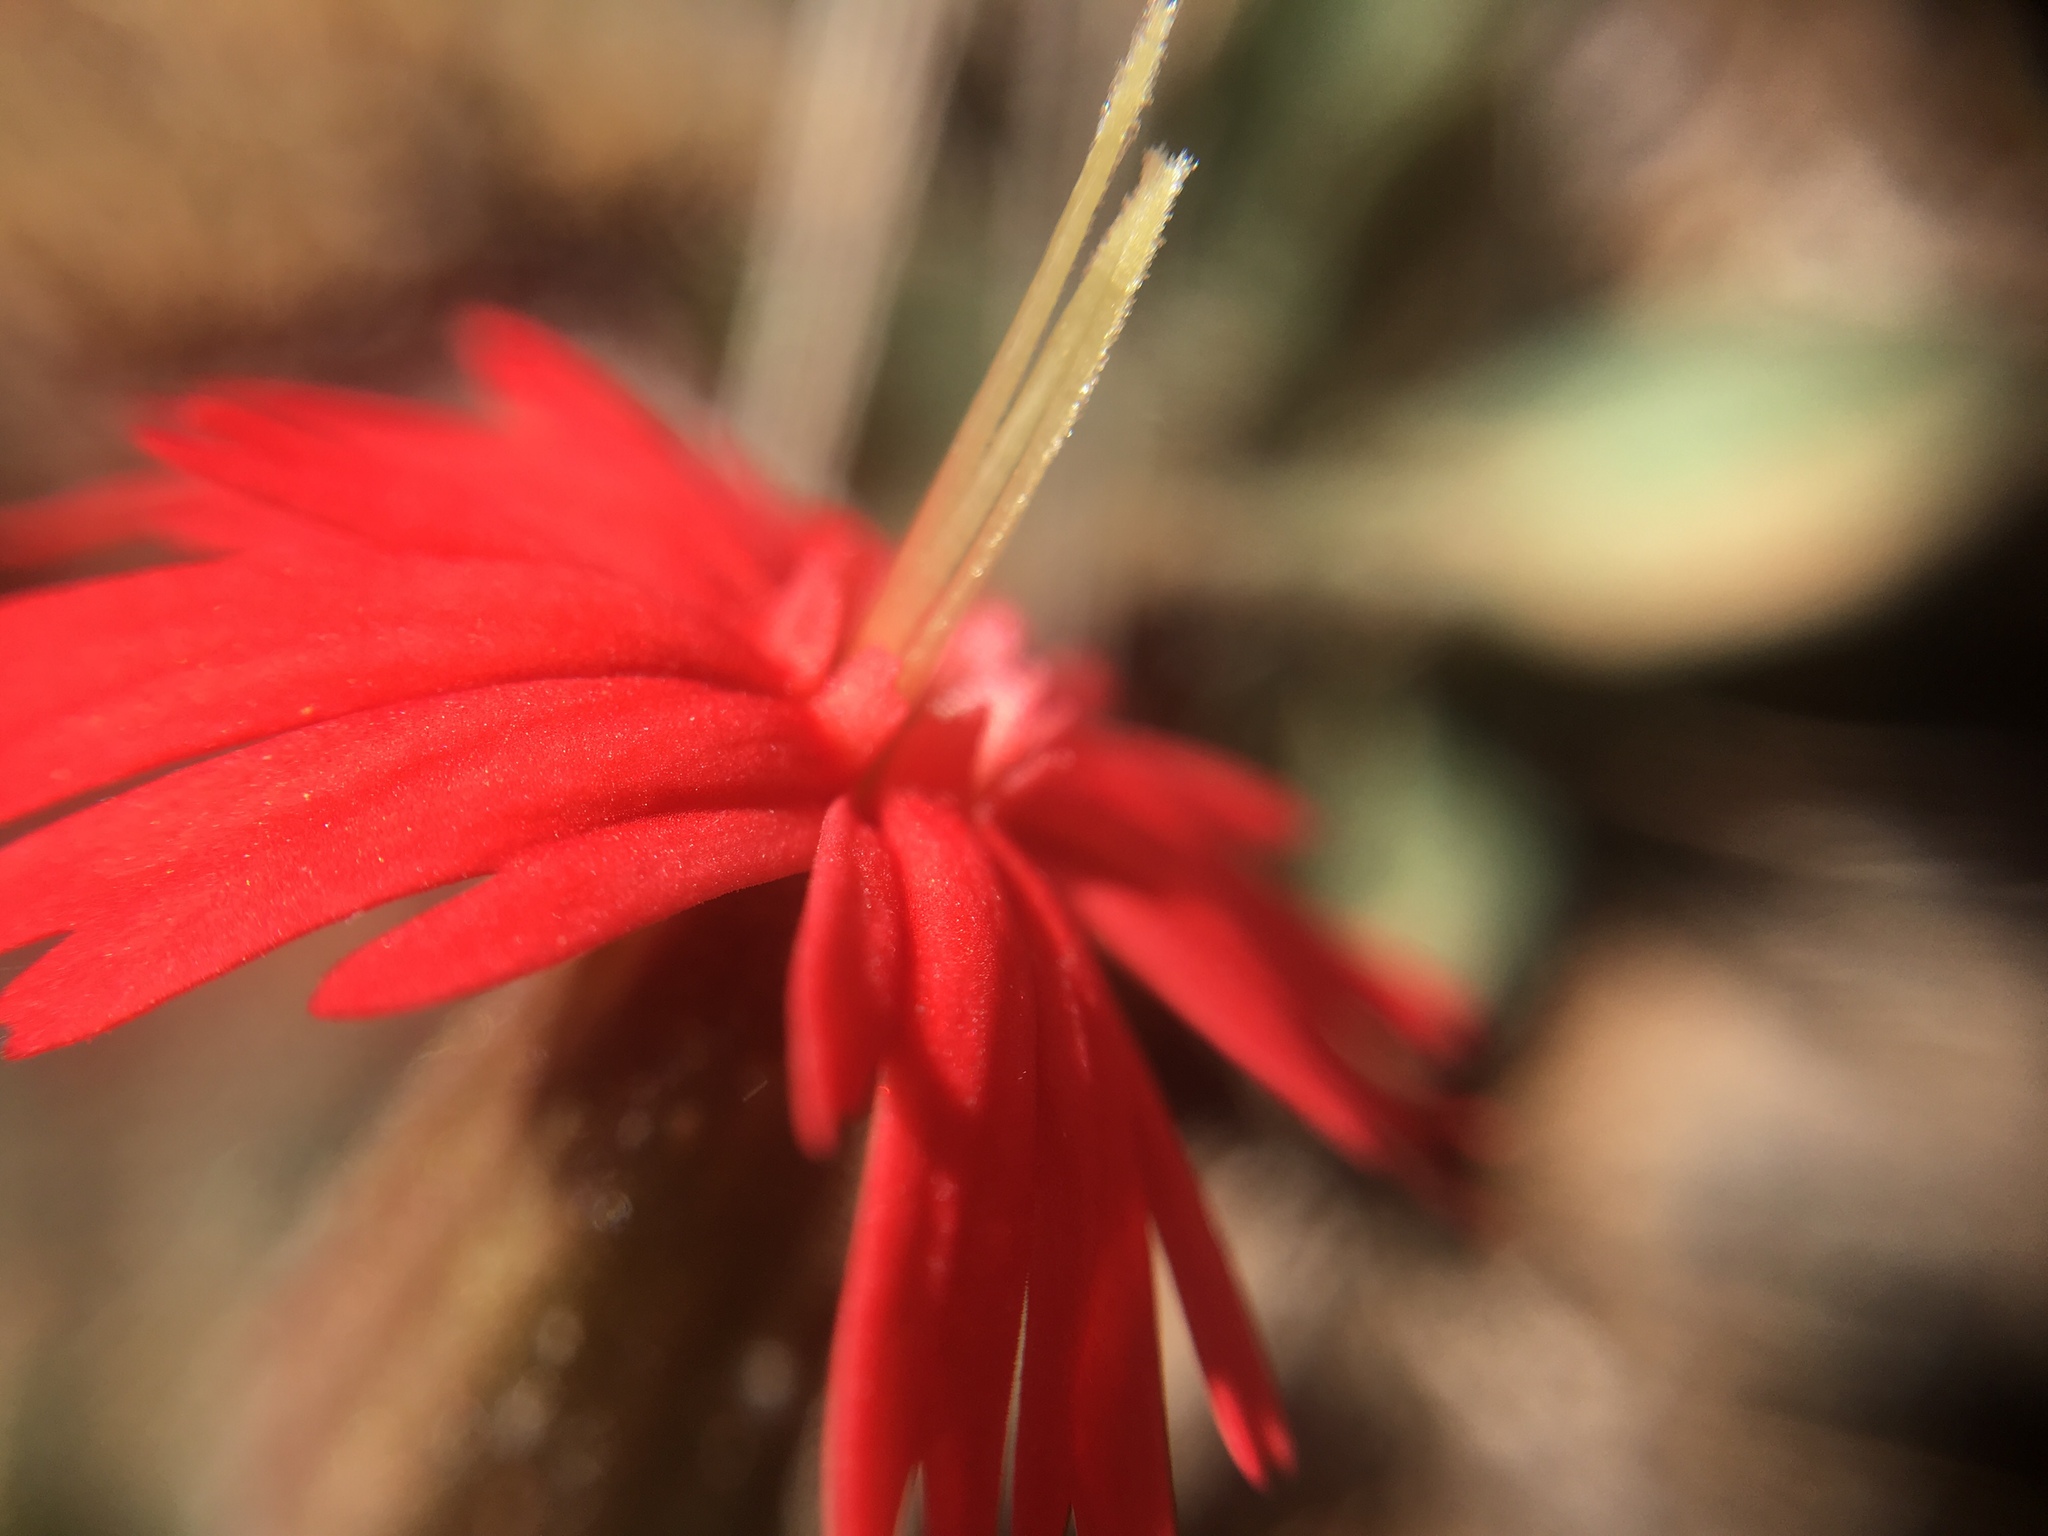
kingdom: Plantae
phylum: Tracheophyta
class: Magnoliopsida
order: Caryophyllales
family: Caryophyllaceae
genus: Silene
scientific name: Silene laciniata
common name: Indian-pink
